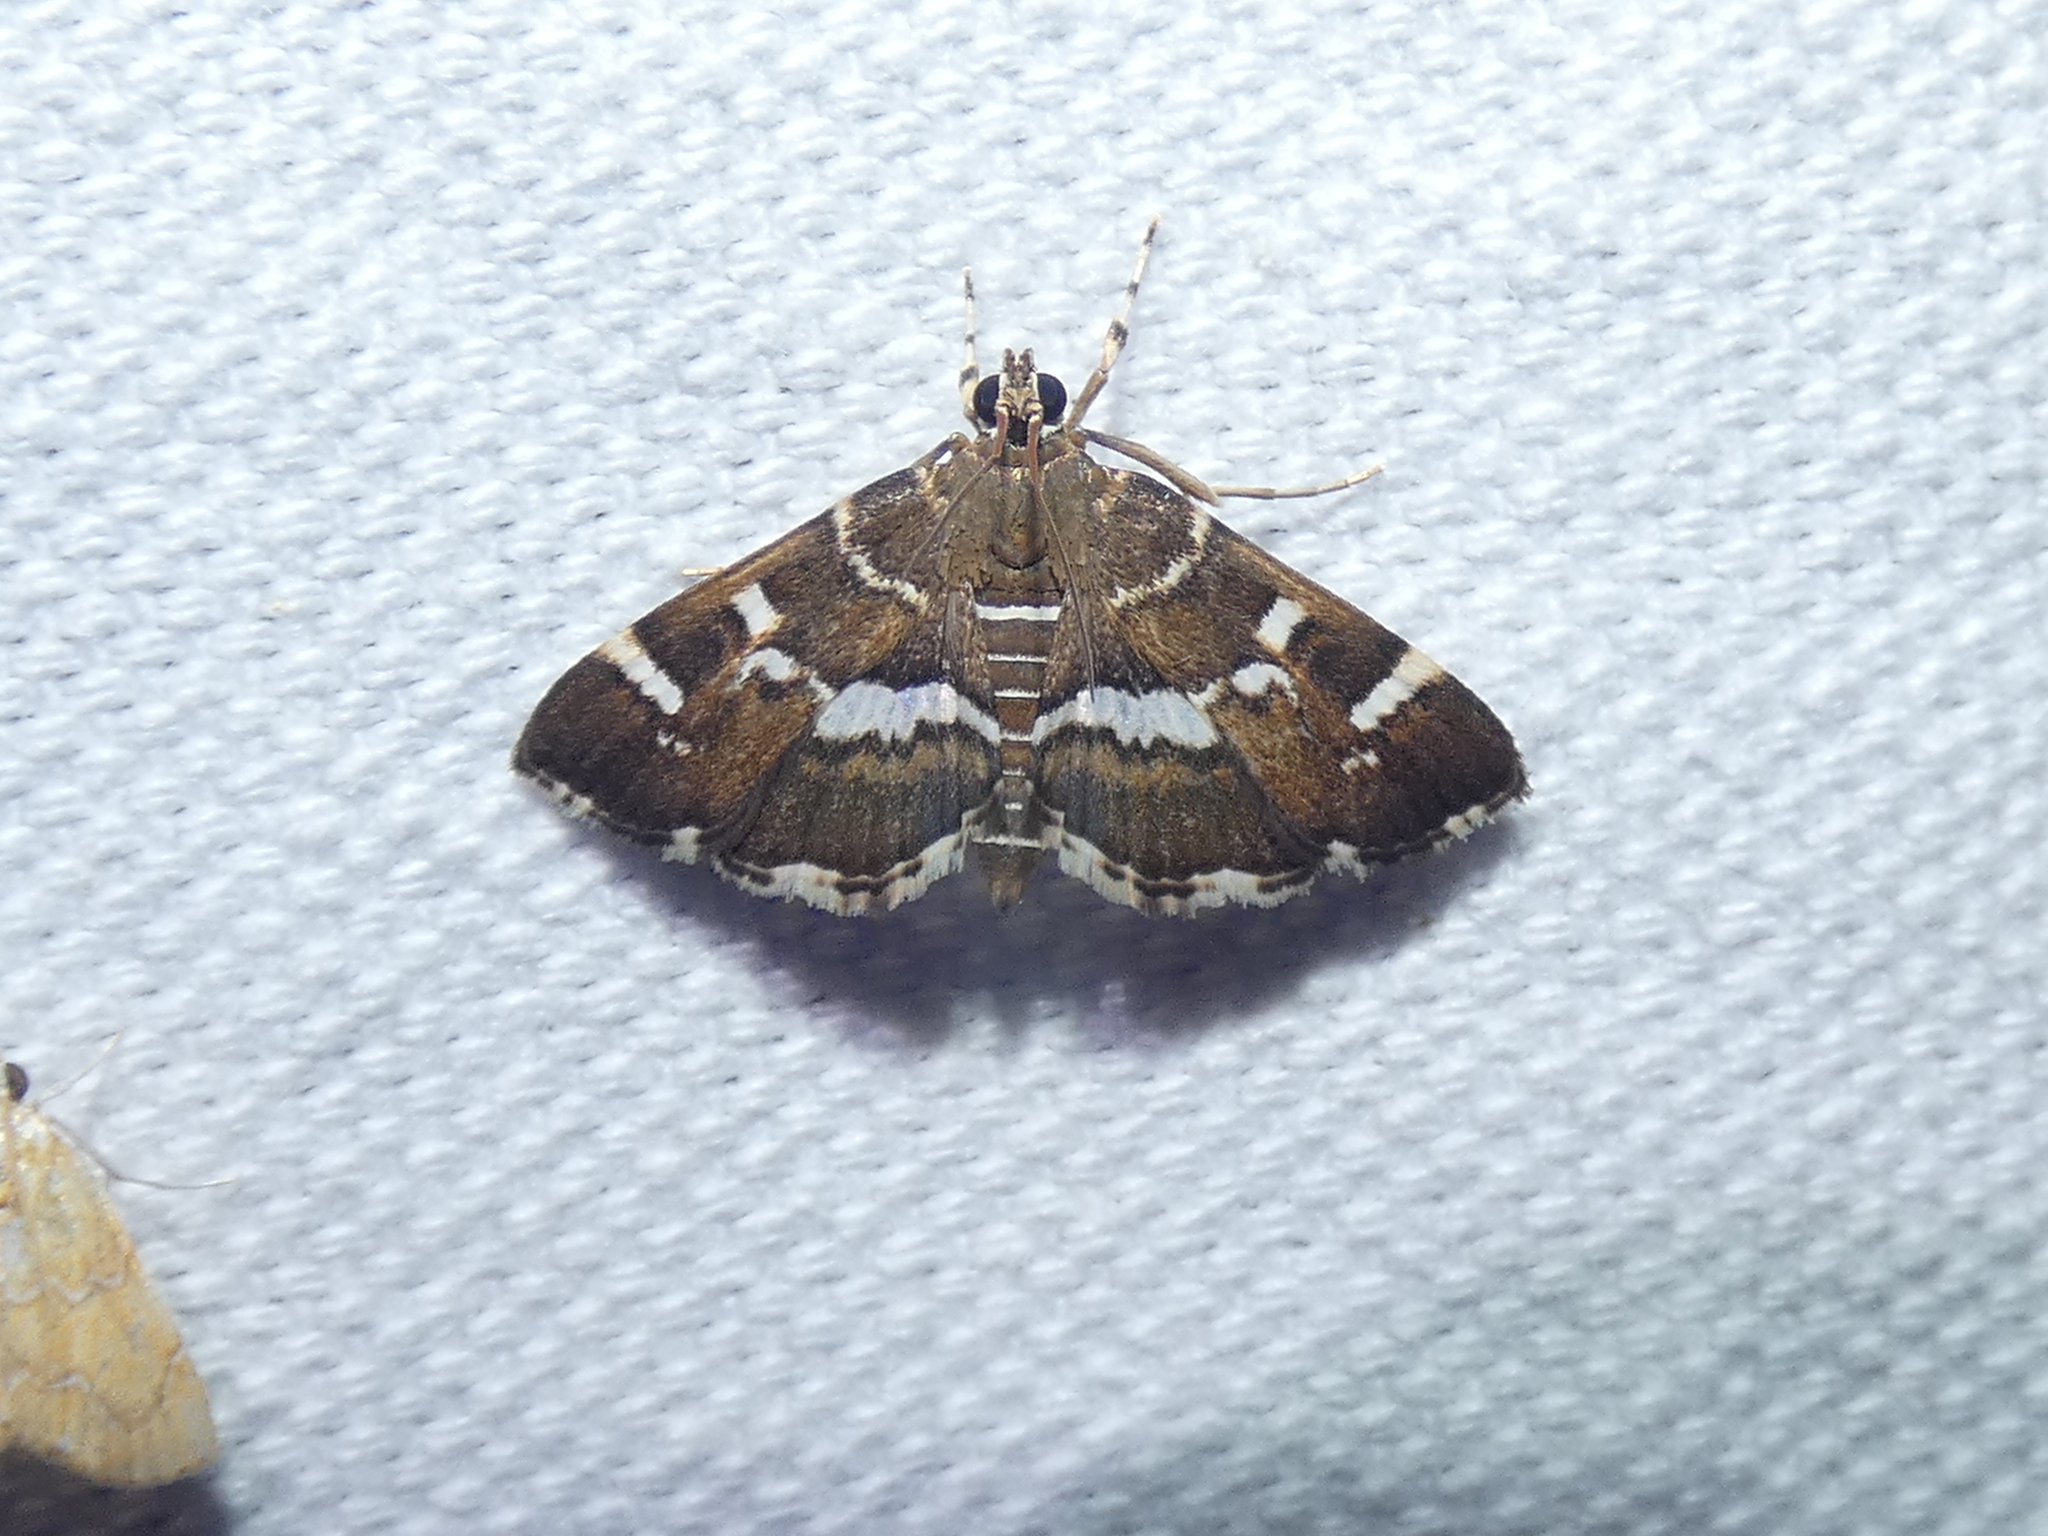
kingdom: Animalia
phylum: Arthropoda
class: Insecta
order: Lepidoptera
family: Crambidae
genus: Hymenia
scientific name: Hymenia perspectalis
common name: Spotted beet webworm
